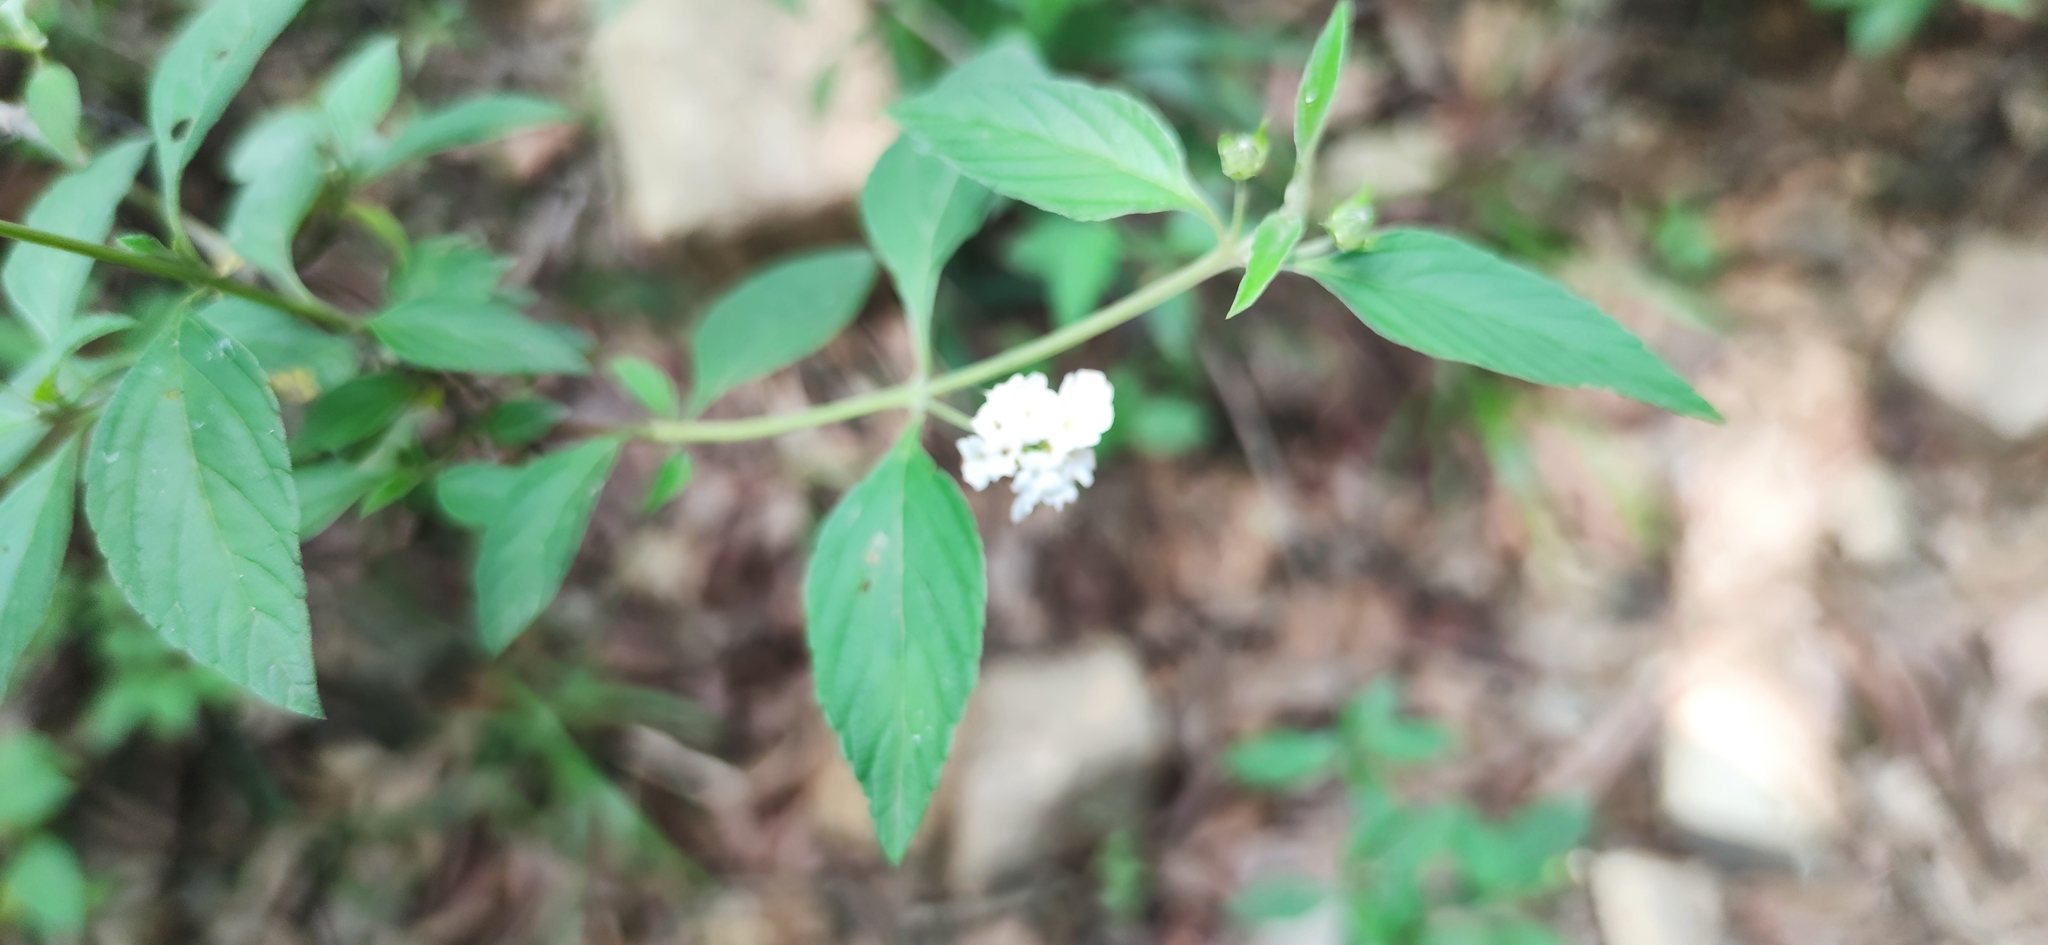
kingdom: Plantae
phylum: Tracheophyta
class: Magnoliopsida
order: Lamiales
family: Verbenaceae
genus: Lantana
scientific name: Lantana canescens
